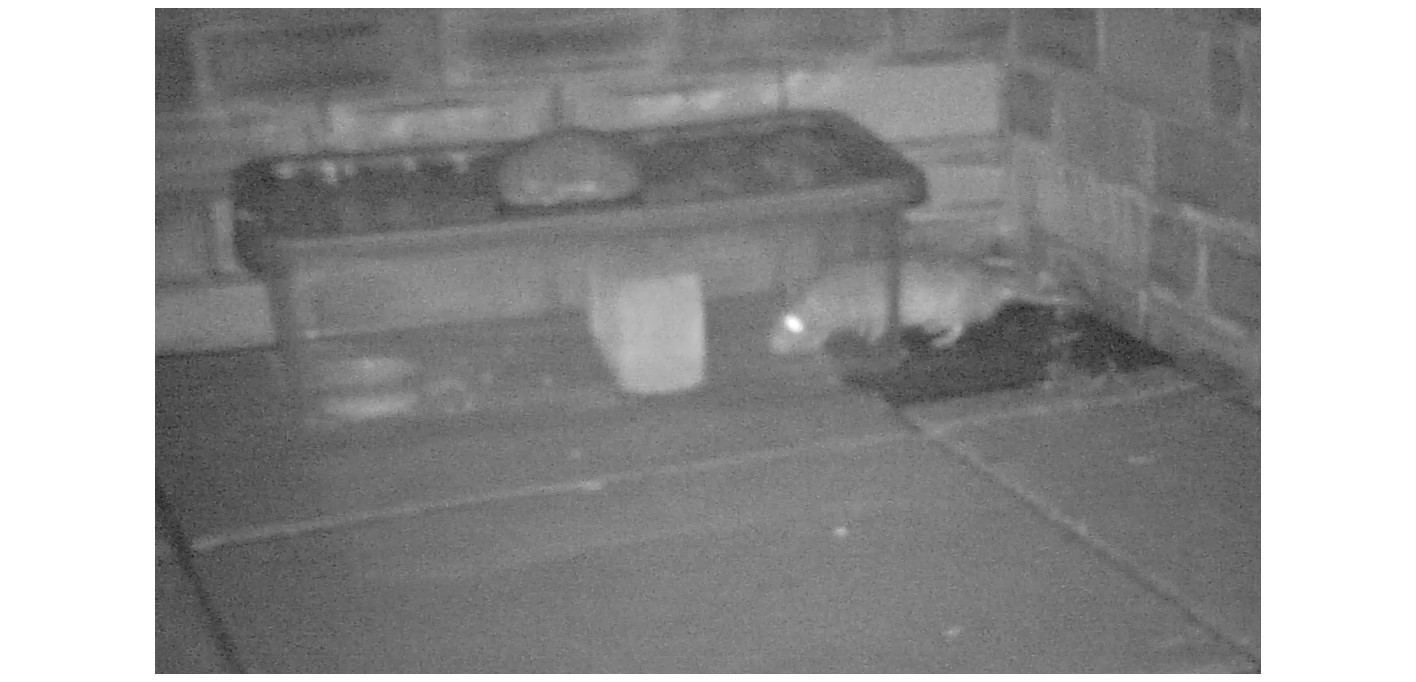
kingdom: Animalia
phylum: Chordata
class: Mammalia
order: Rodentia
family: Muridae
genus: Rattus
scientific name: Rattus norvegicus
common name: Brown rat
